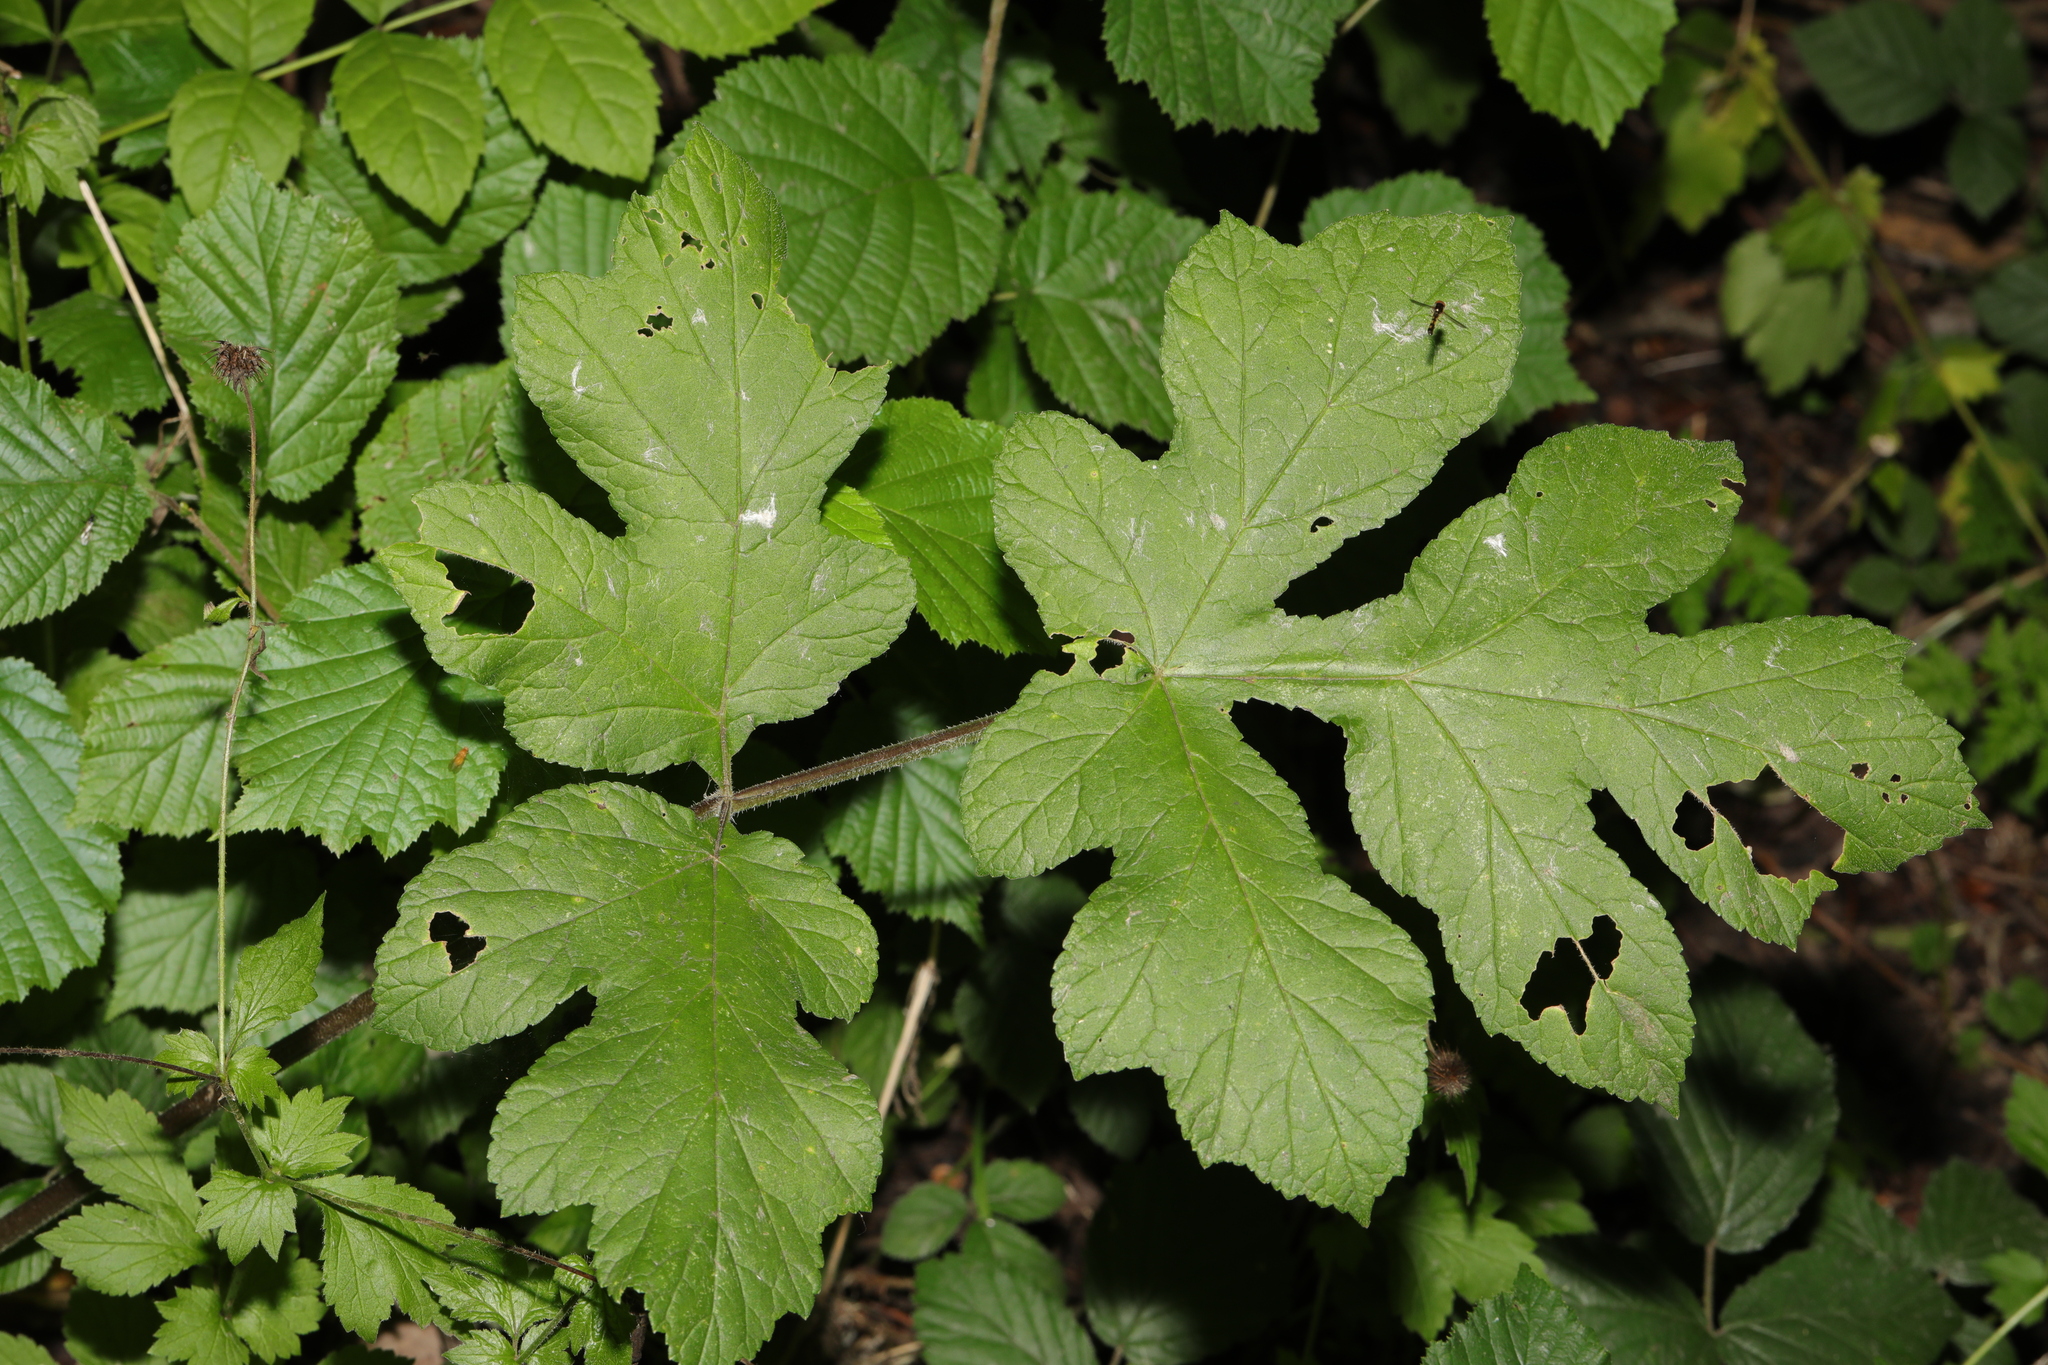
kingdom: Plantae
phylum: Tracheophyta
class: Magnoliopsida
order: Apiales
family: Apiaceae
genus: Heracleum
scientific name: Heracleum sphondylium
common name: Hogweed
